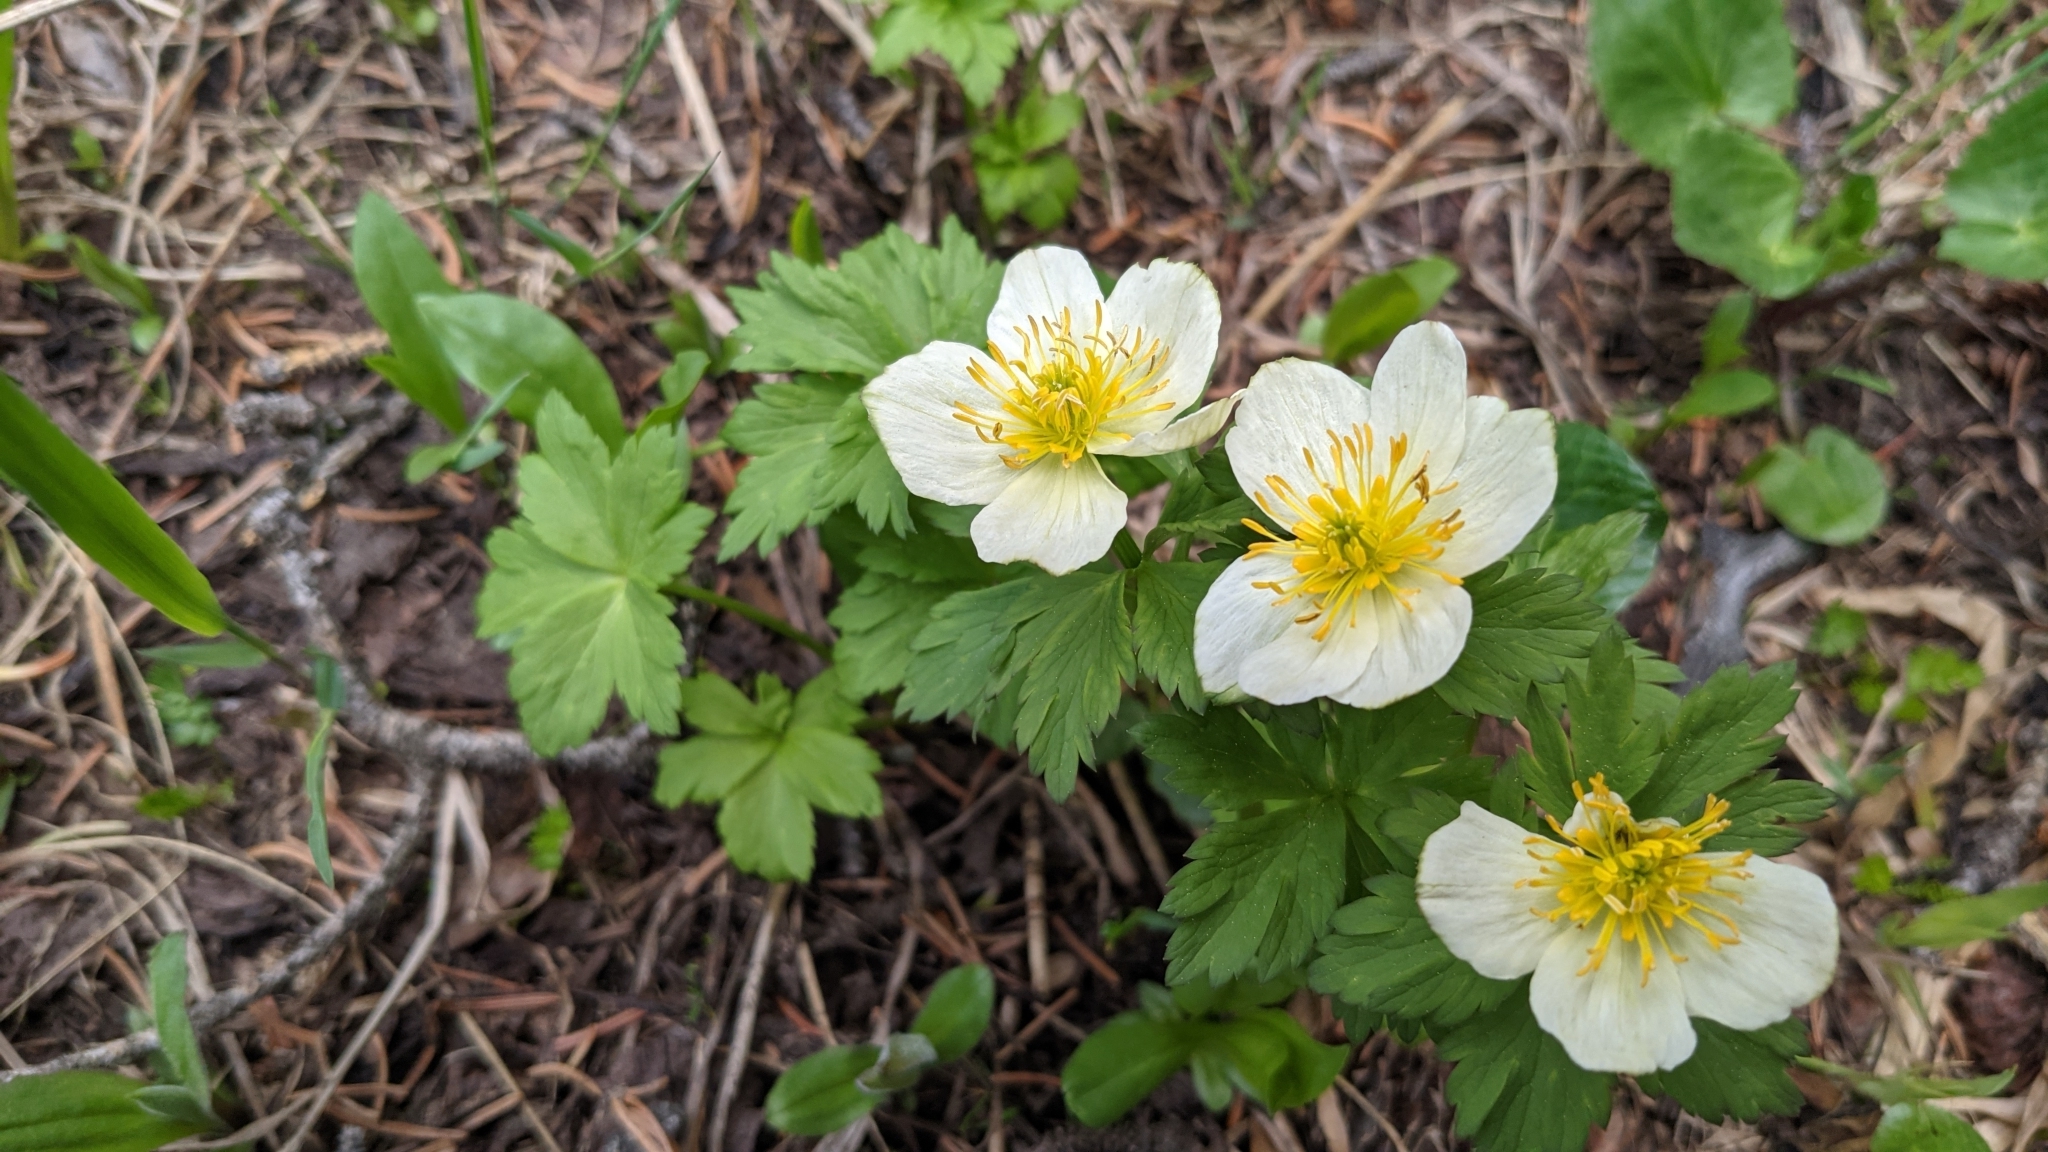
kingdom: Plantae
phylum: Tracheophyta
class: Magnoliopsida
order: Ranunculales
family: Ranunculaceae
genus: Trollius
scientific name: Trollius laxus
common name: American globeflower
